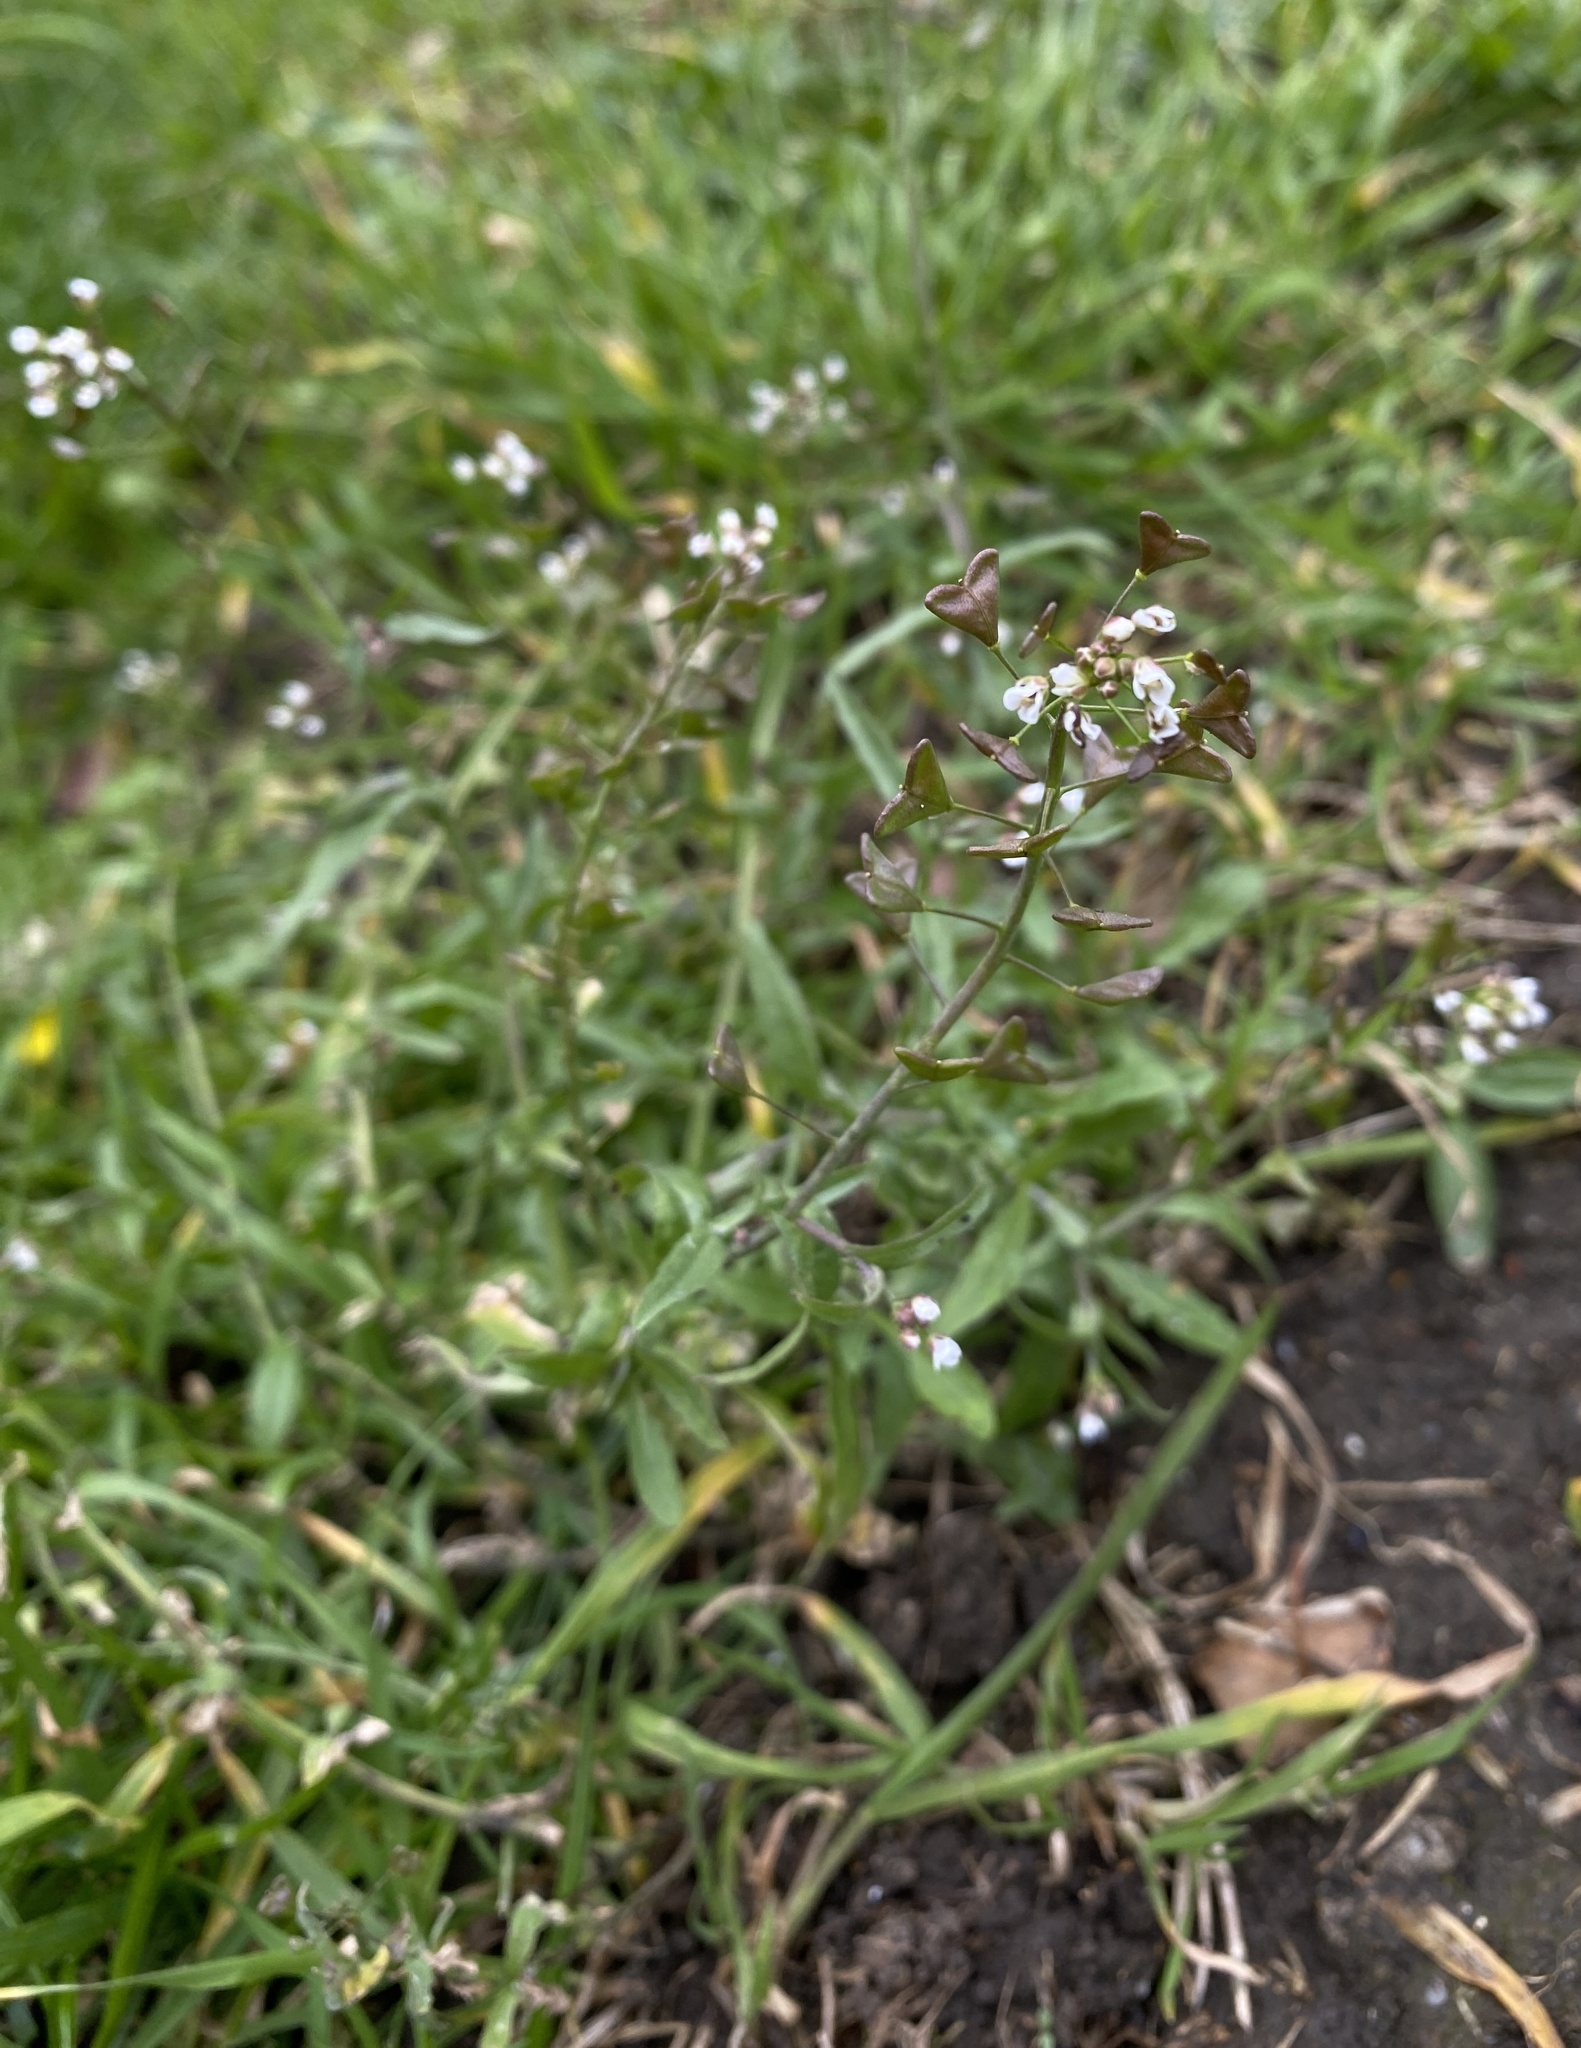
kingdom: Plantae
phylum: Tracheophyta
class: Magnoliopsida
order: Brassicales
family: Brassicaceae
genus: Capsella
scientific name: Capsella bursa-pastoris
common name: Shepherd's purse
